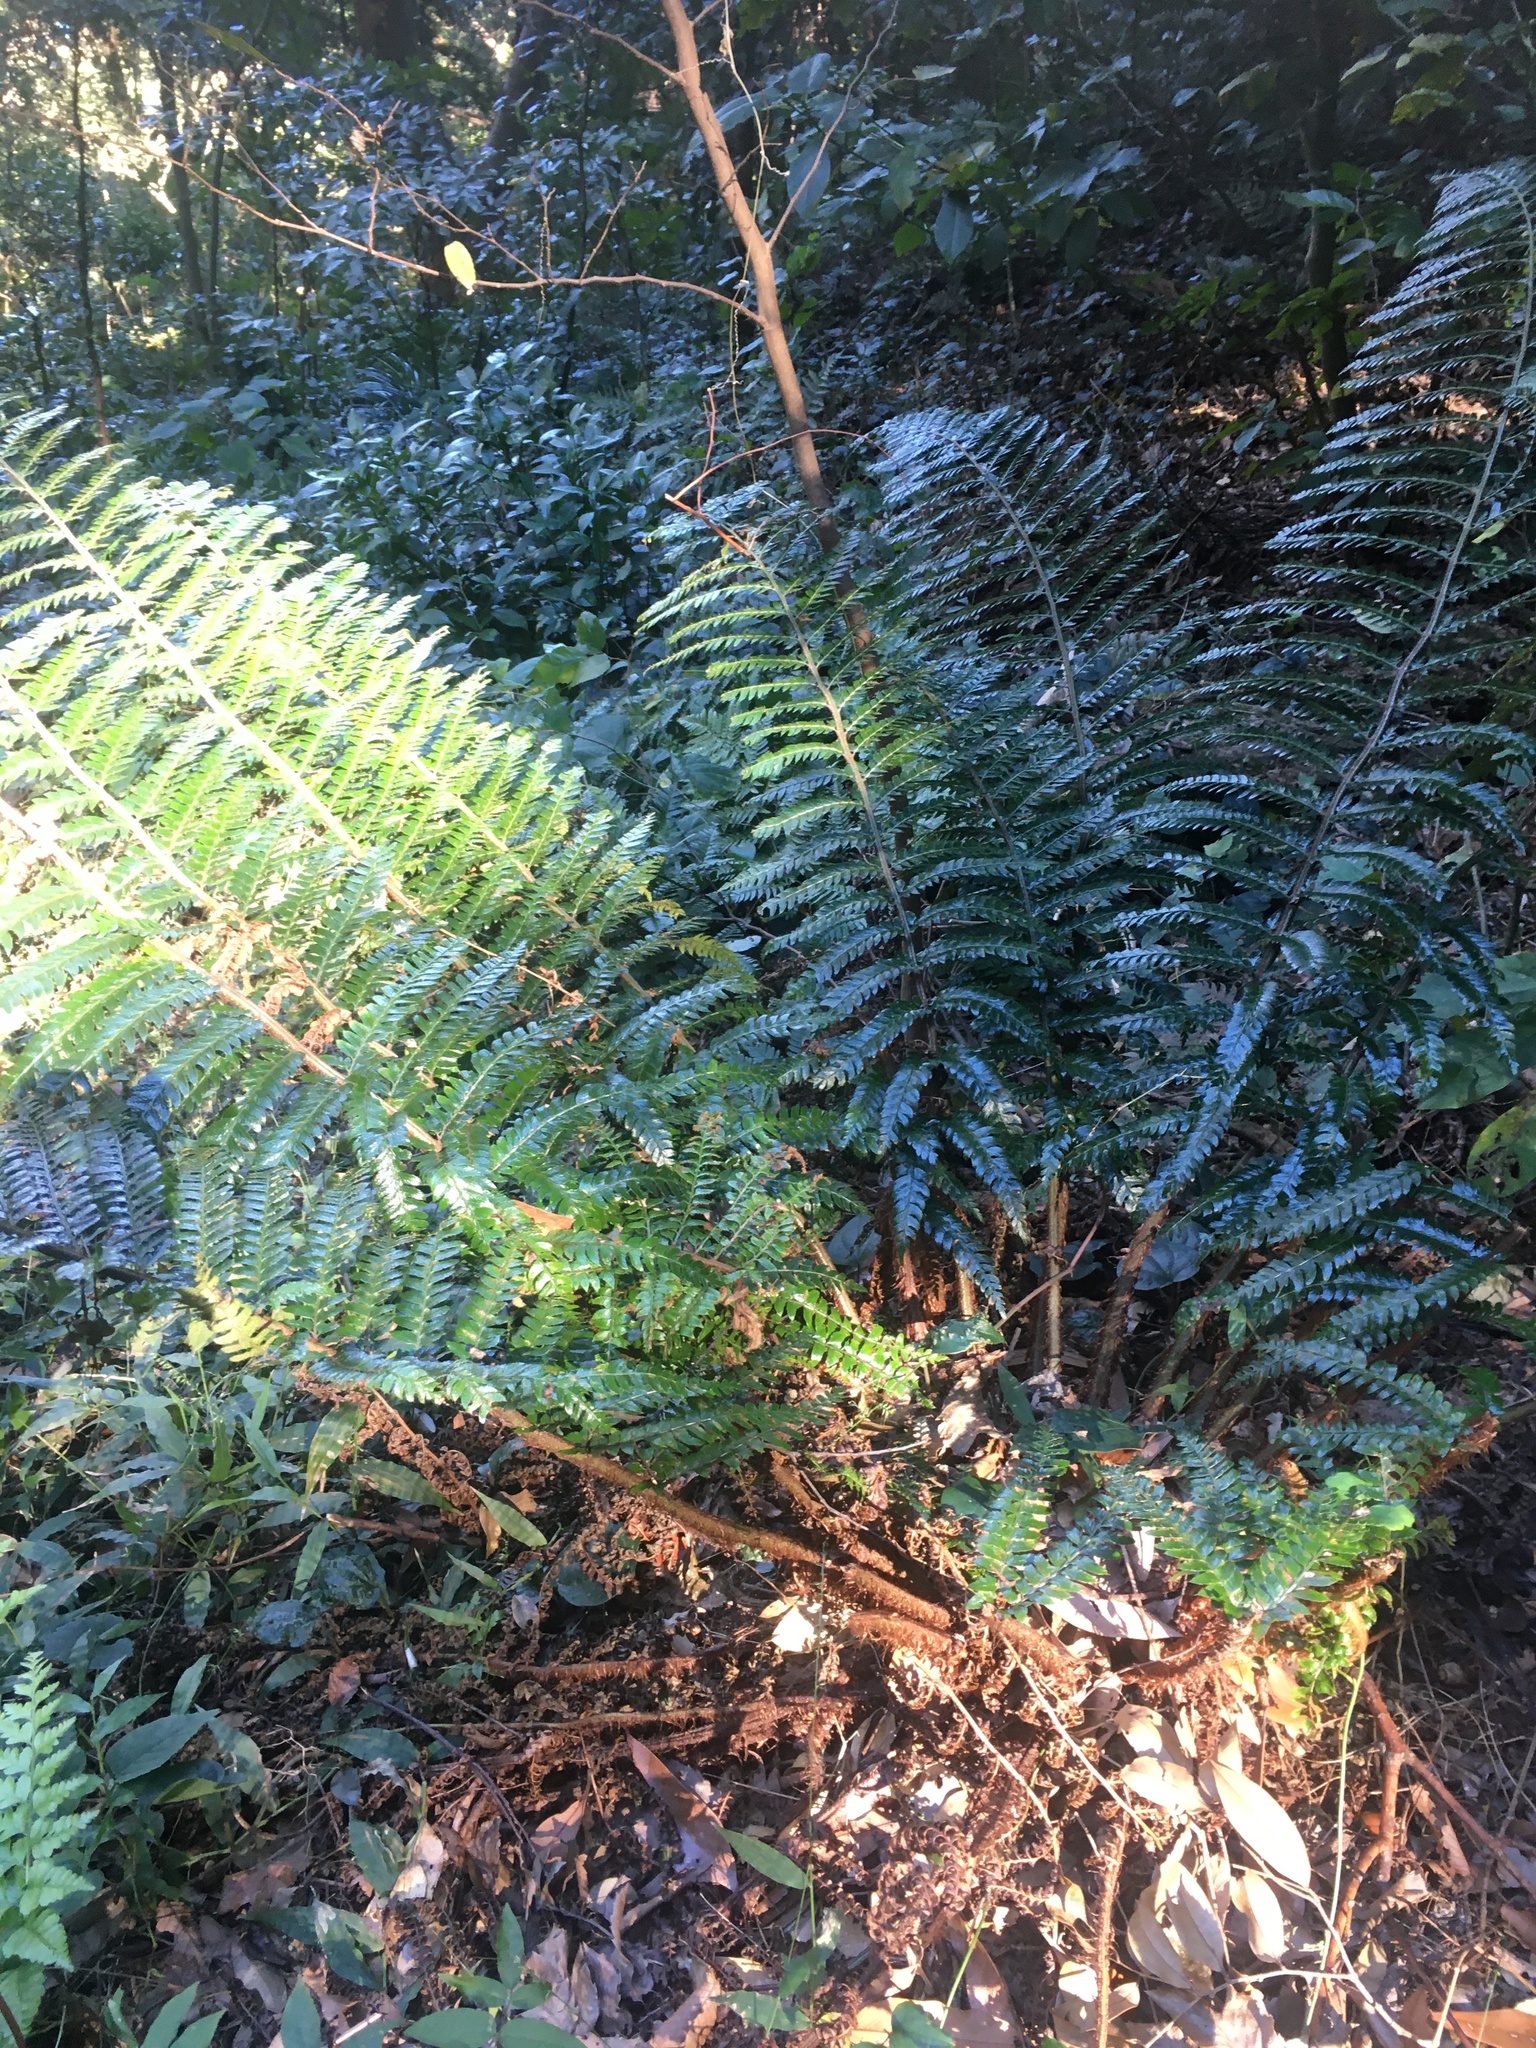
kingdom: Plantae
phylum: Tracheophyta
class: Polypodiopsida
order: Polypodiales
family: Dryopteridaceae
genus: Polystichum
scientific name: Polystichum luctuosum
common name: Korean rockfern
